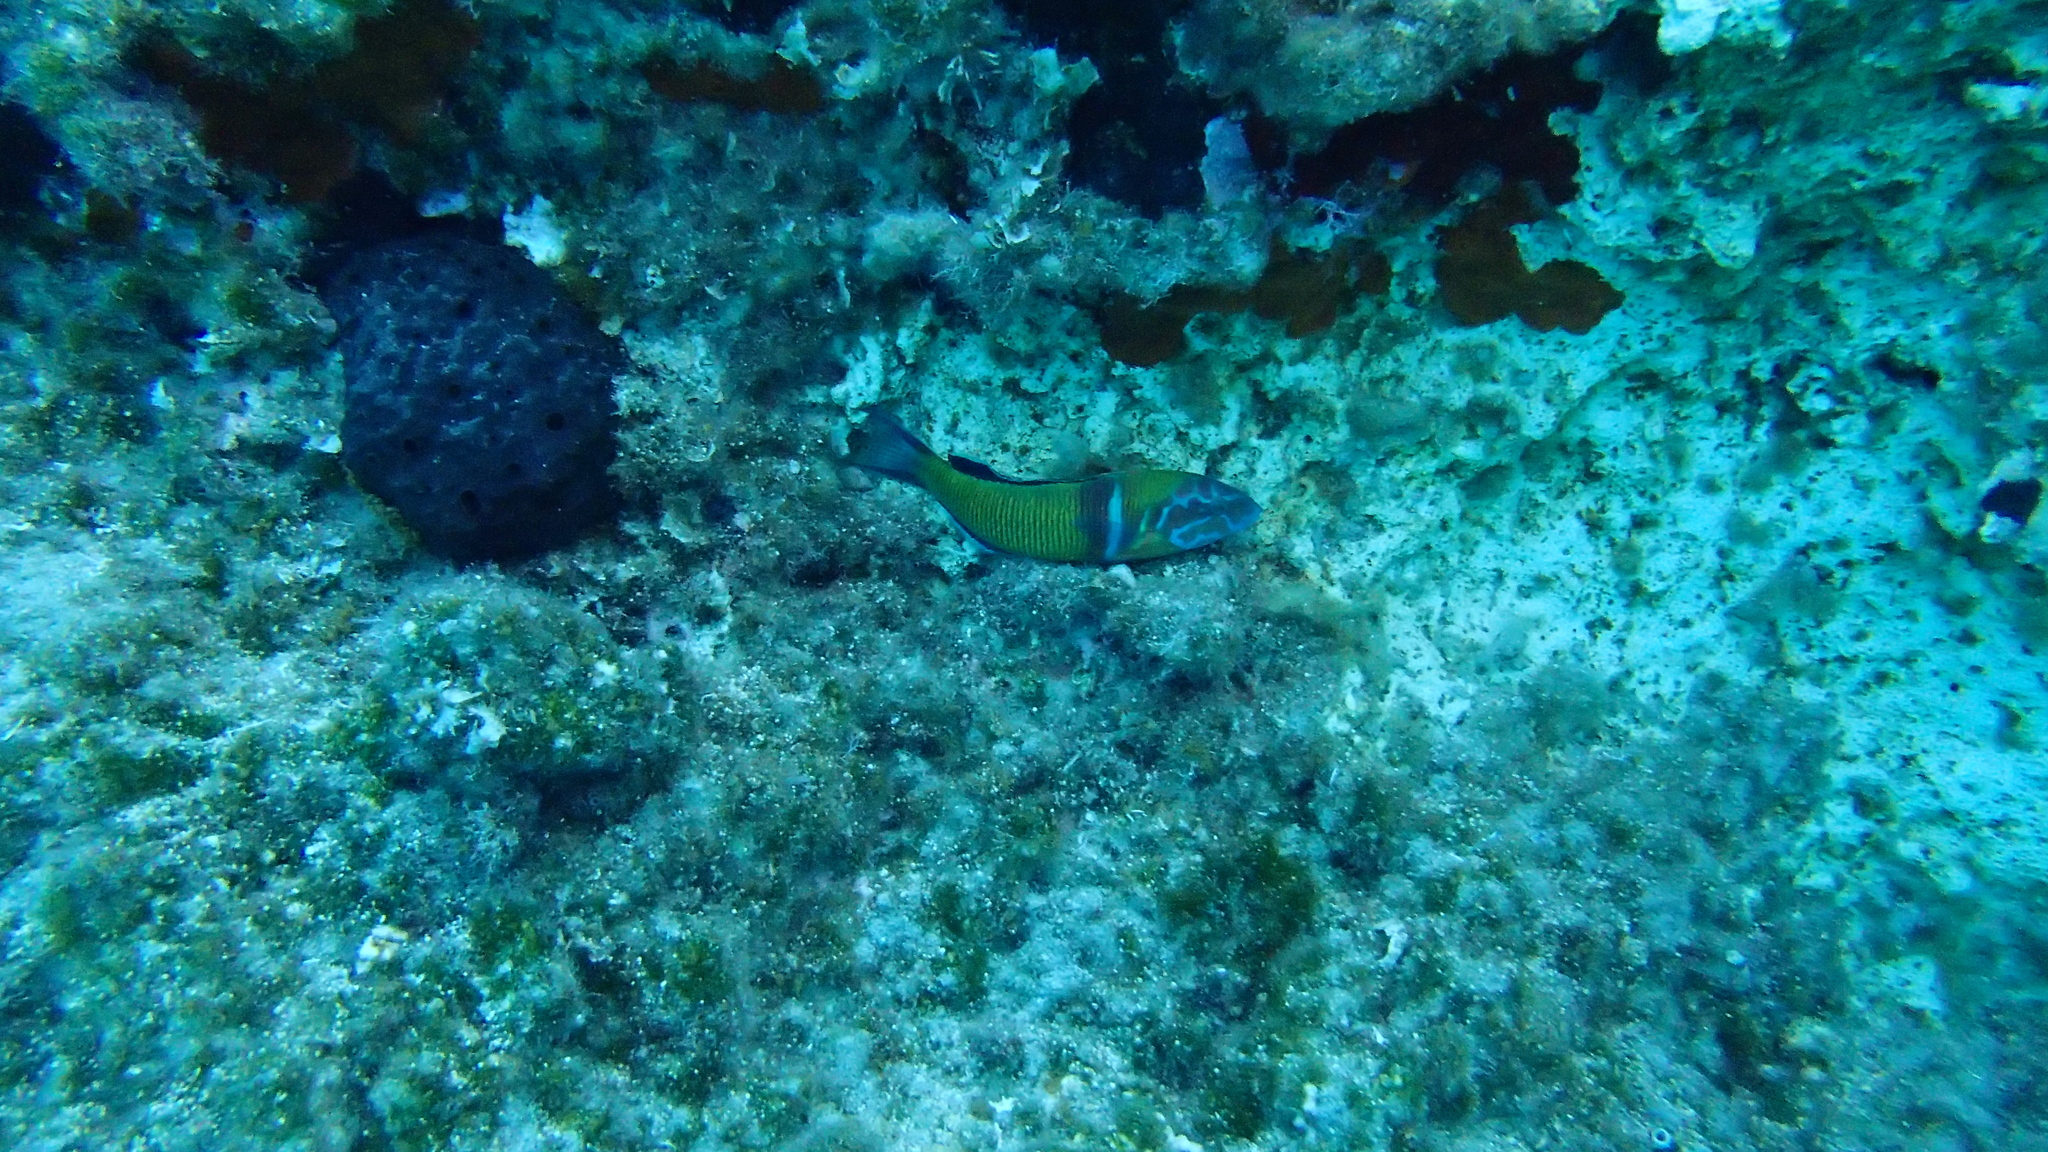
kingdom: Animalia
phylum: Chordata
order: Perciformes
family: Labridae
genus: Thalassoma
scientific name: Thalassoma pavo
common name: Ornate wrasse
